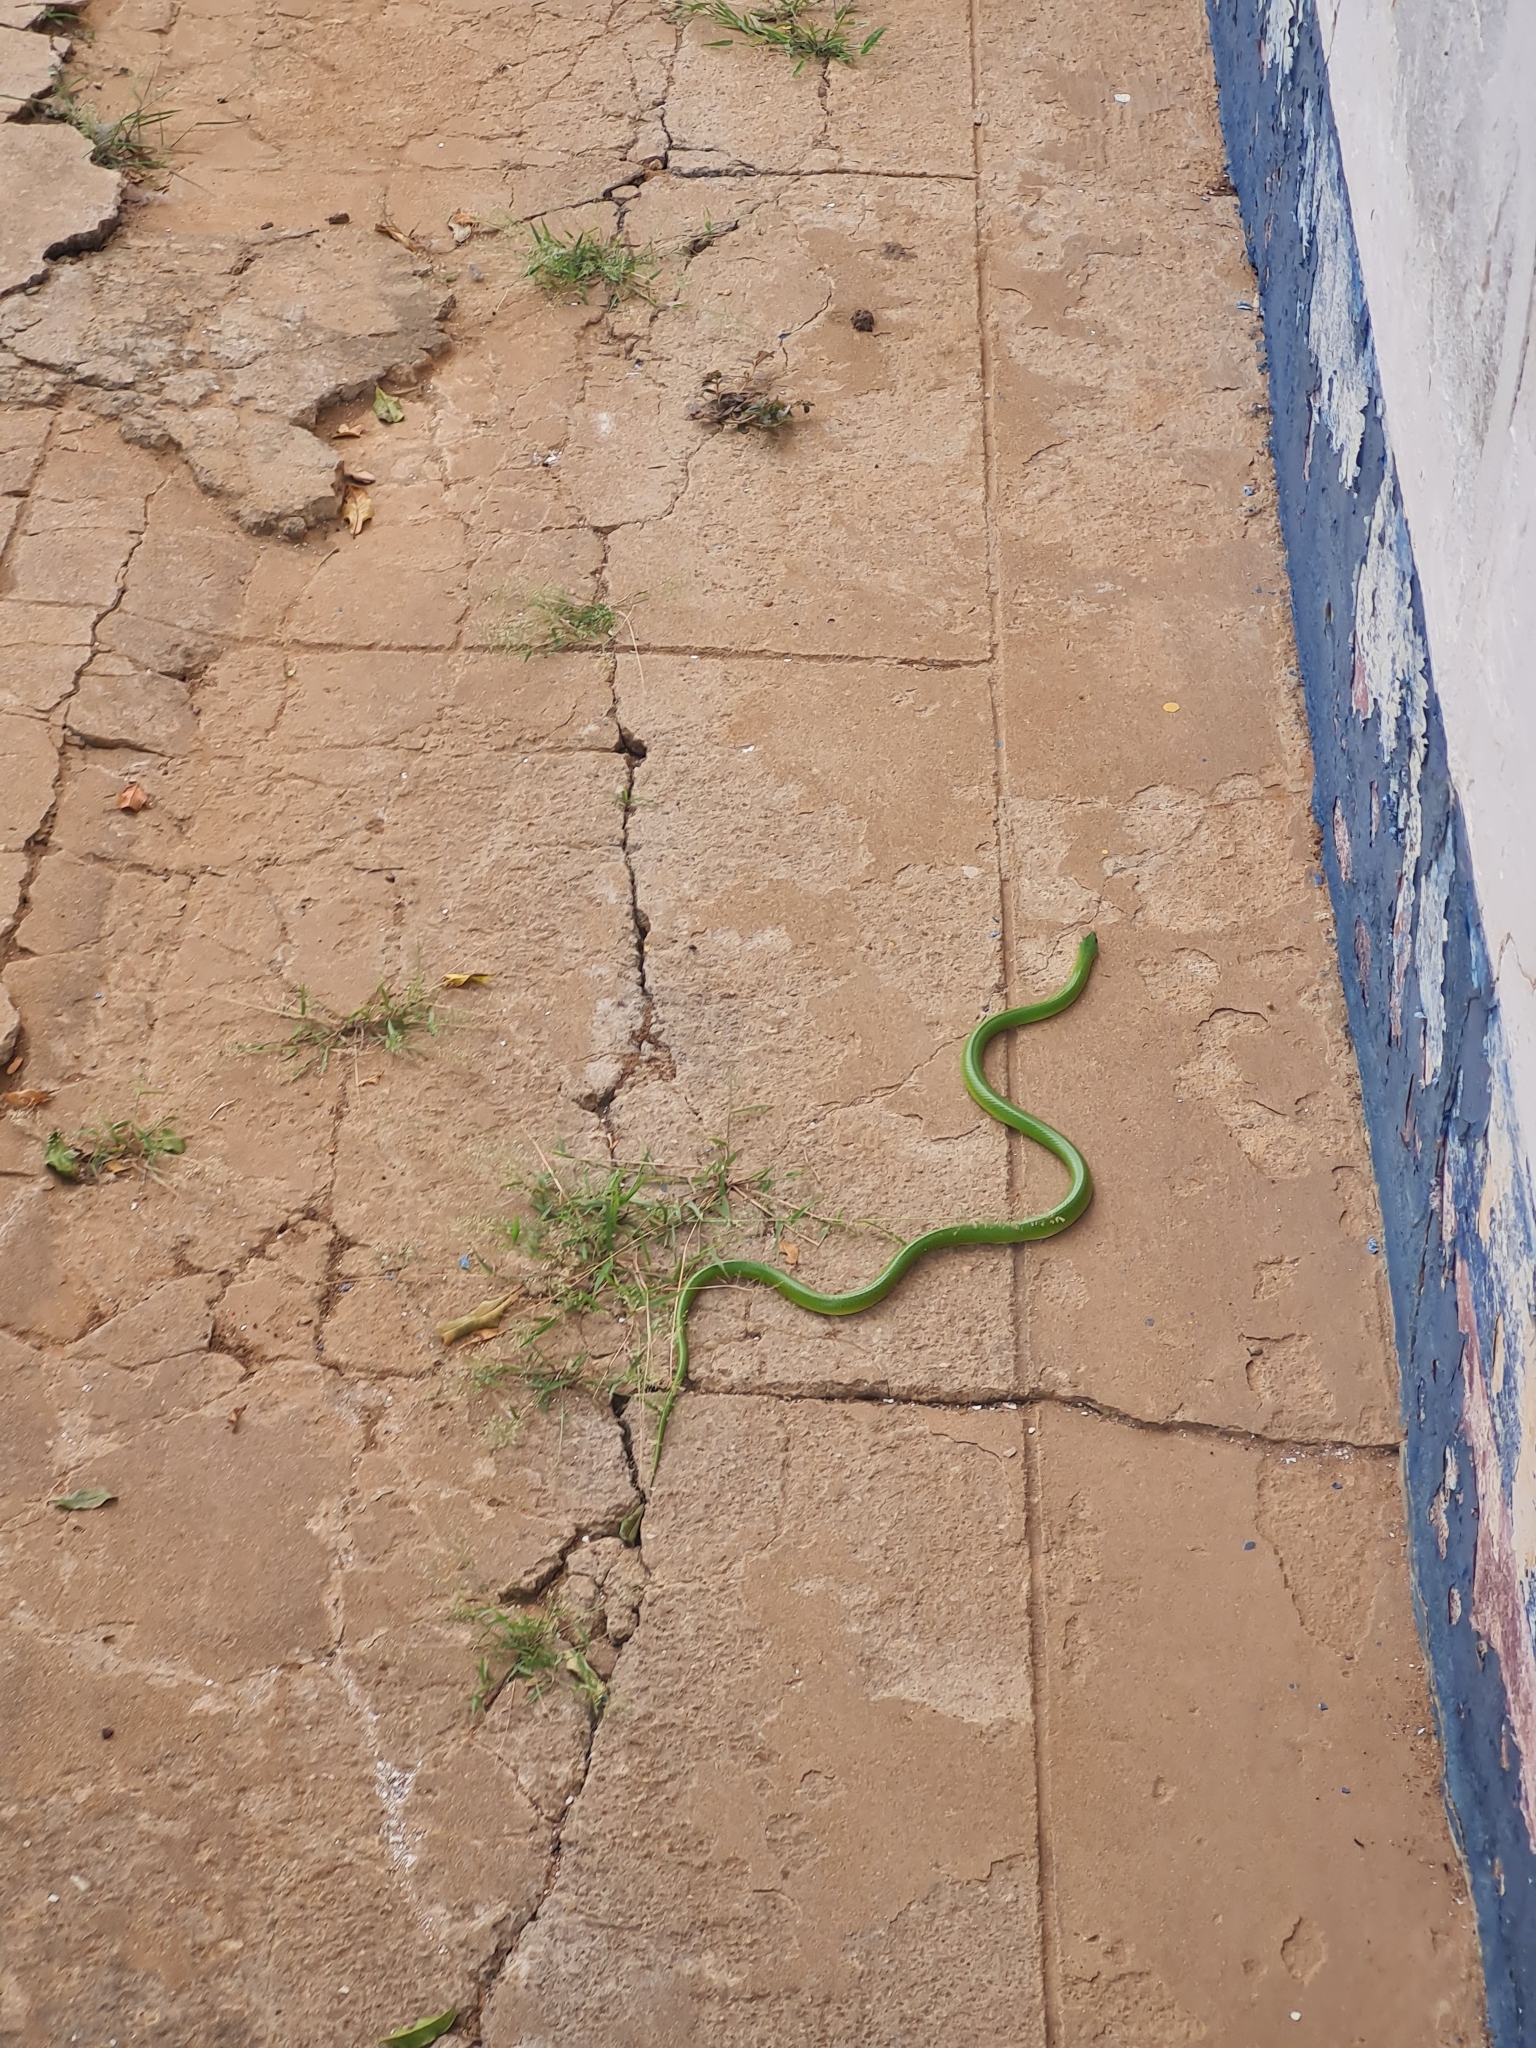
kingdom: Animalia
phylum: Chordata
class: Squamata
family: Colubridae
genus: Erythrolamprus
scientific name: Erythrolamprus viridis
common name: Crown ground snake
